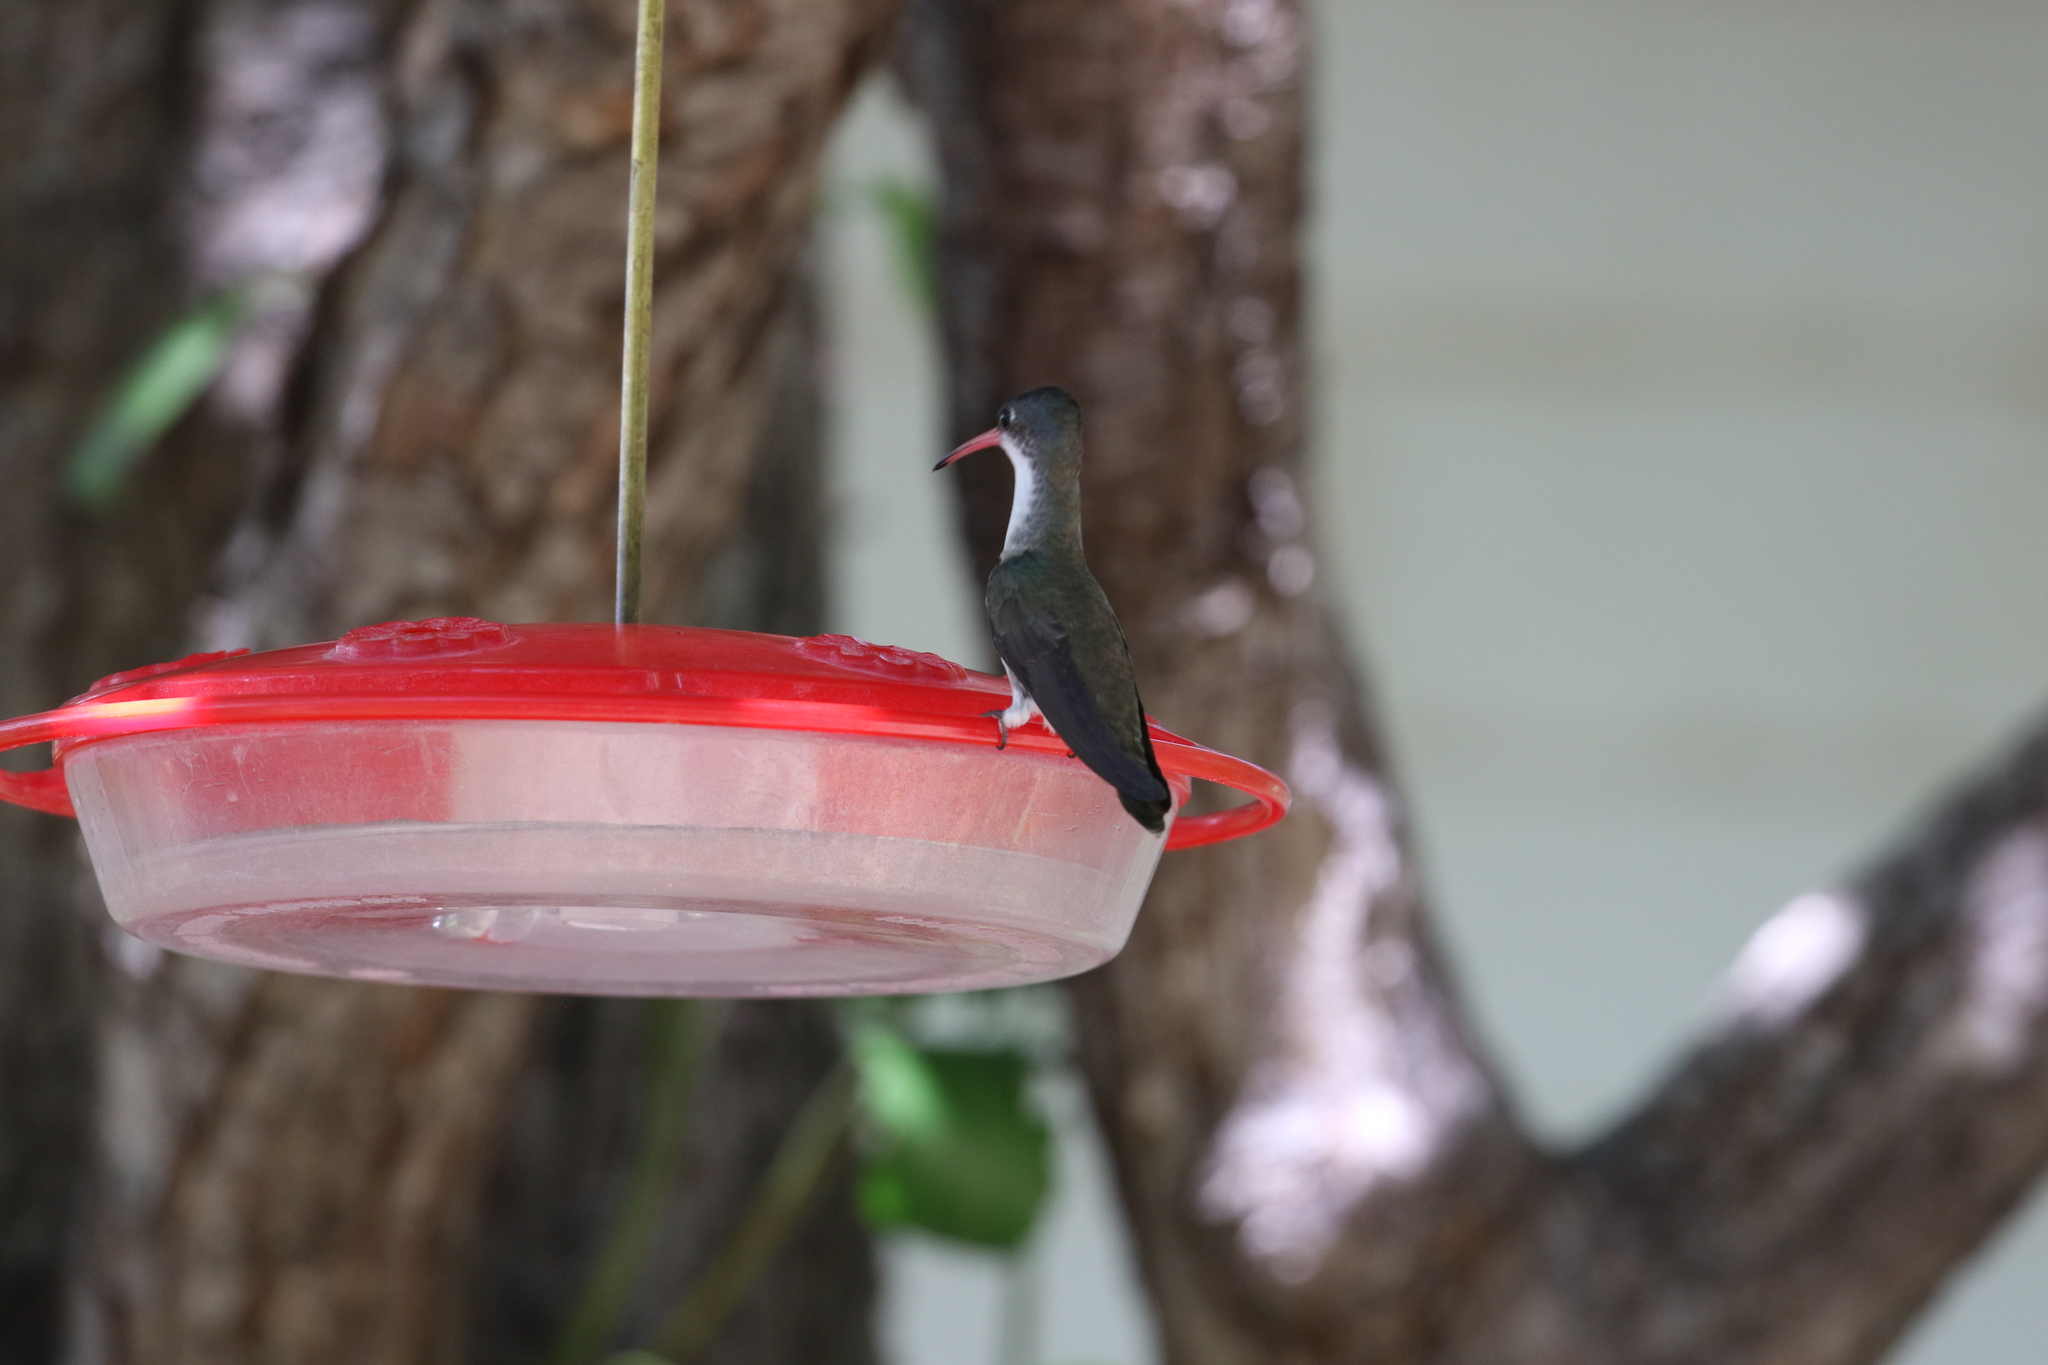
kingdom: Animalia
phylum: Chordata
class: Aves
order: Apodiformes
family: Trochilidae
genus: Leucolia
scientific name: Leucolia violiceps
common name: Violet-crowned hummingbird
